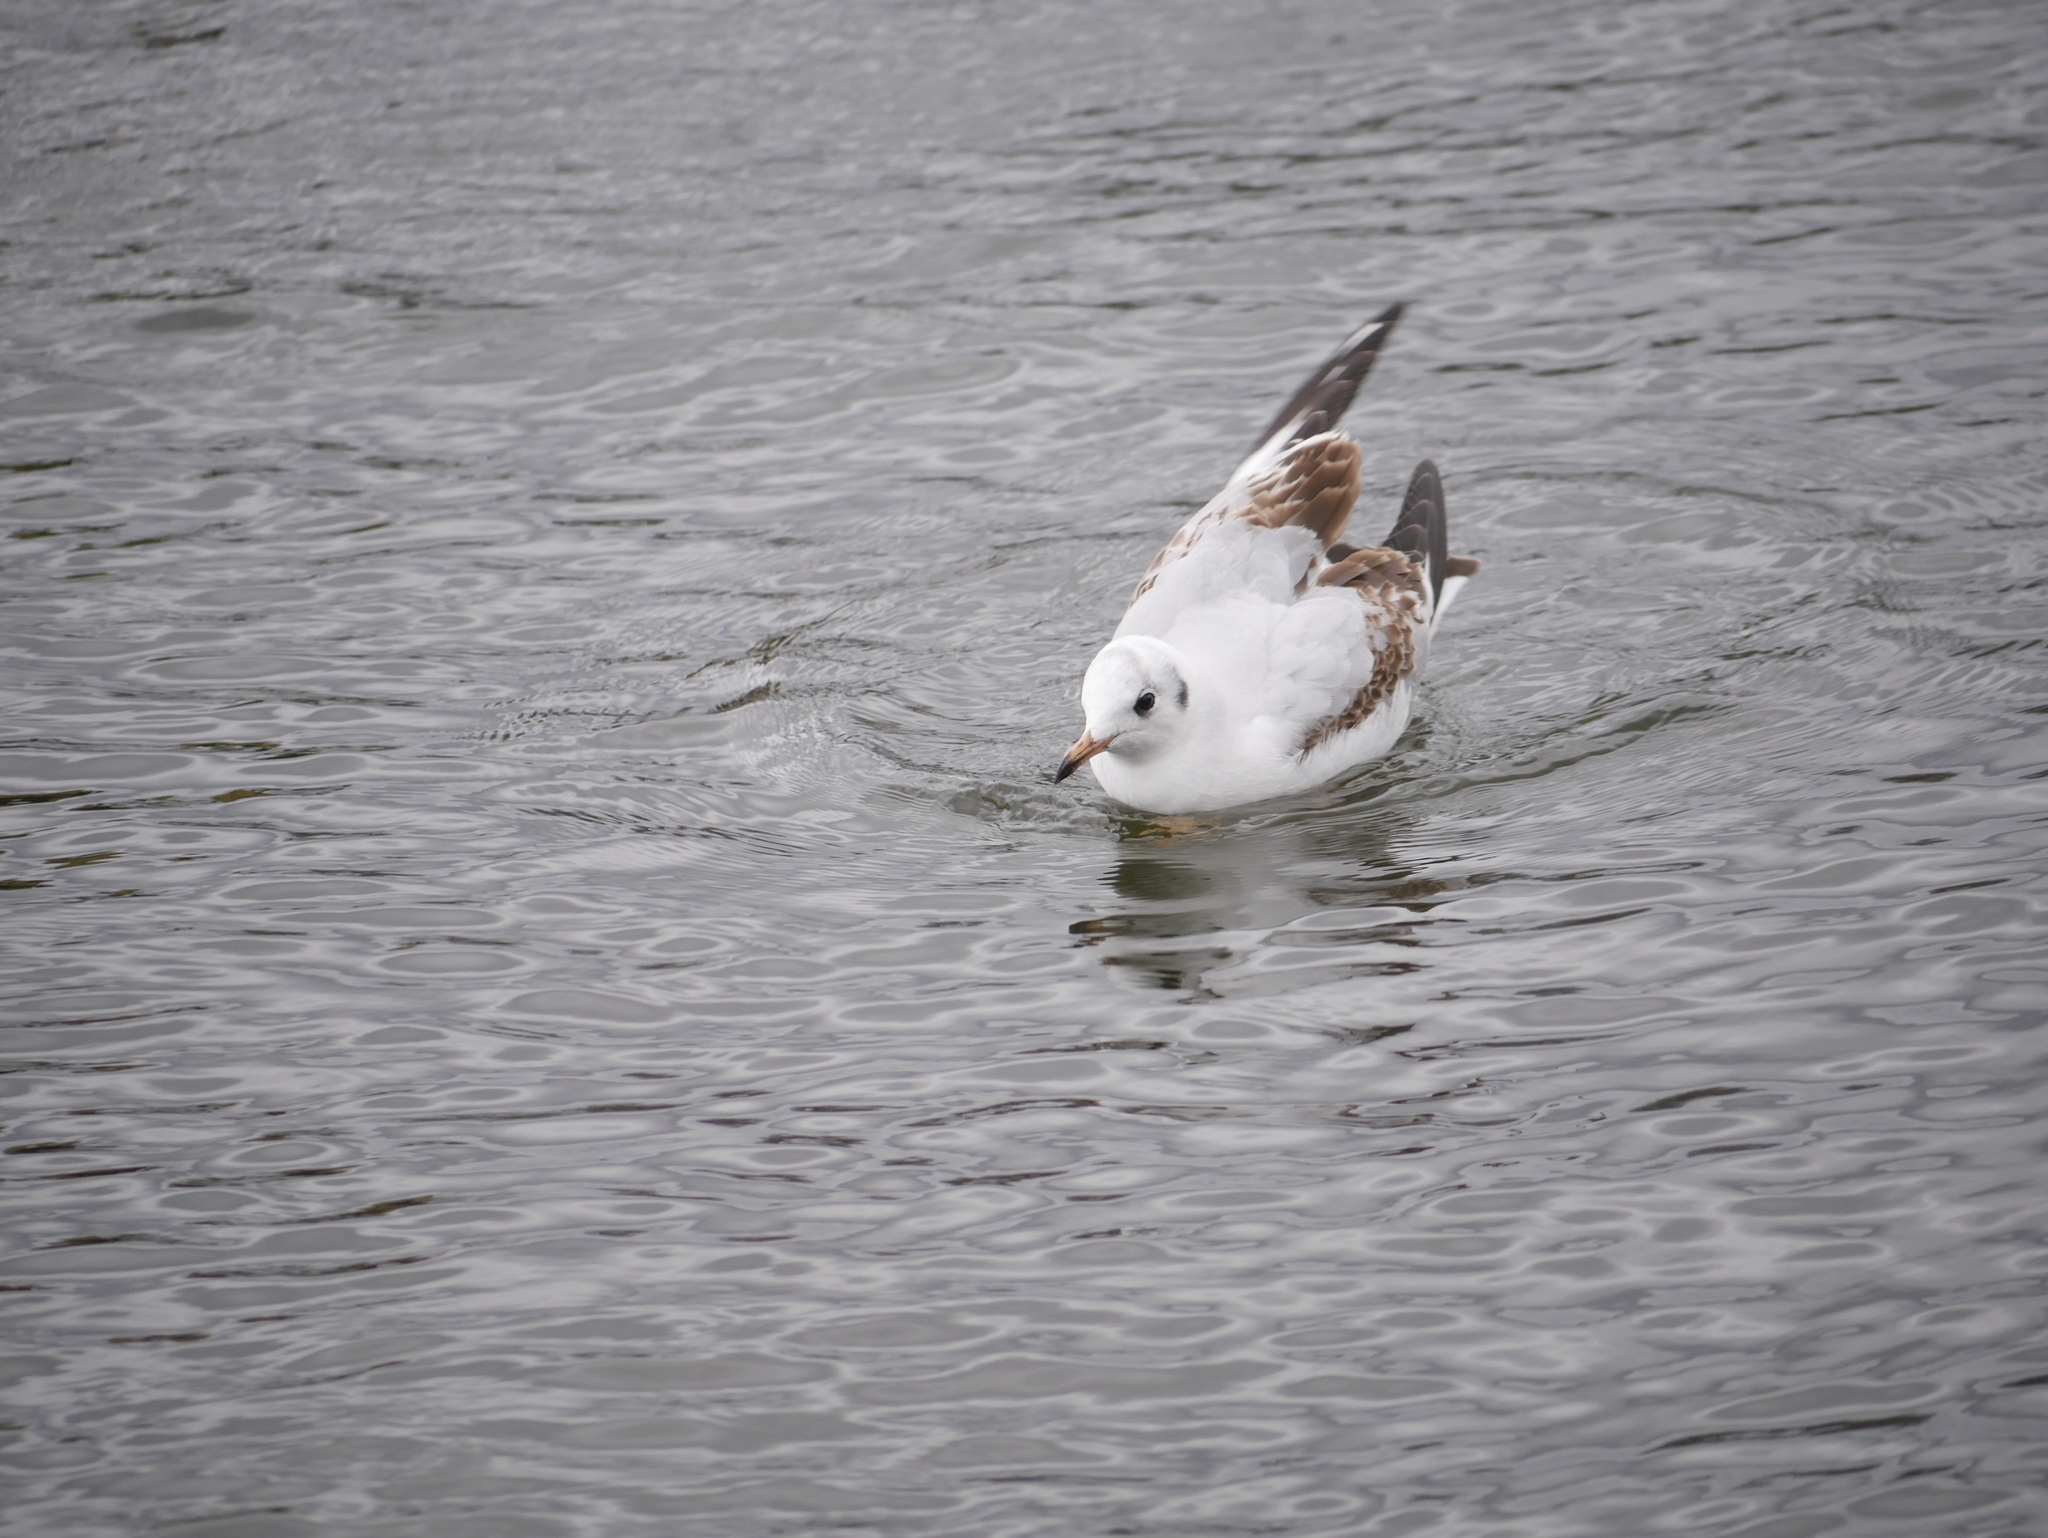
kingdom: Animalia
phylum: Chordata
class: Aves
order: Charadriiformes
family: Laridae
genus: Chroicocephalus
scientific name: Chroicocephalus ridibundus
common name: Black-headed gull
